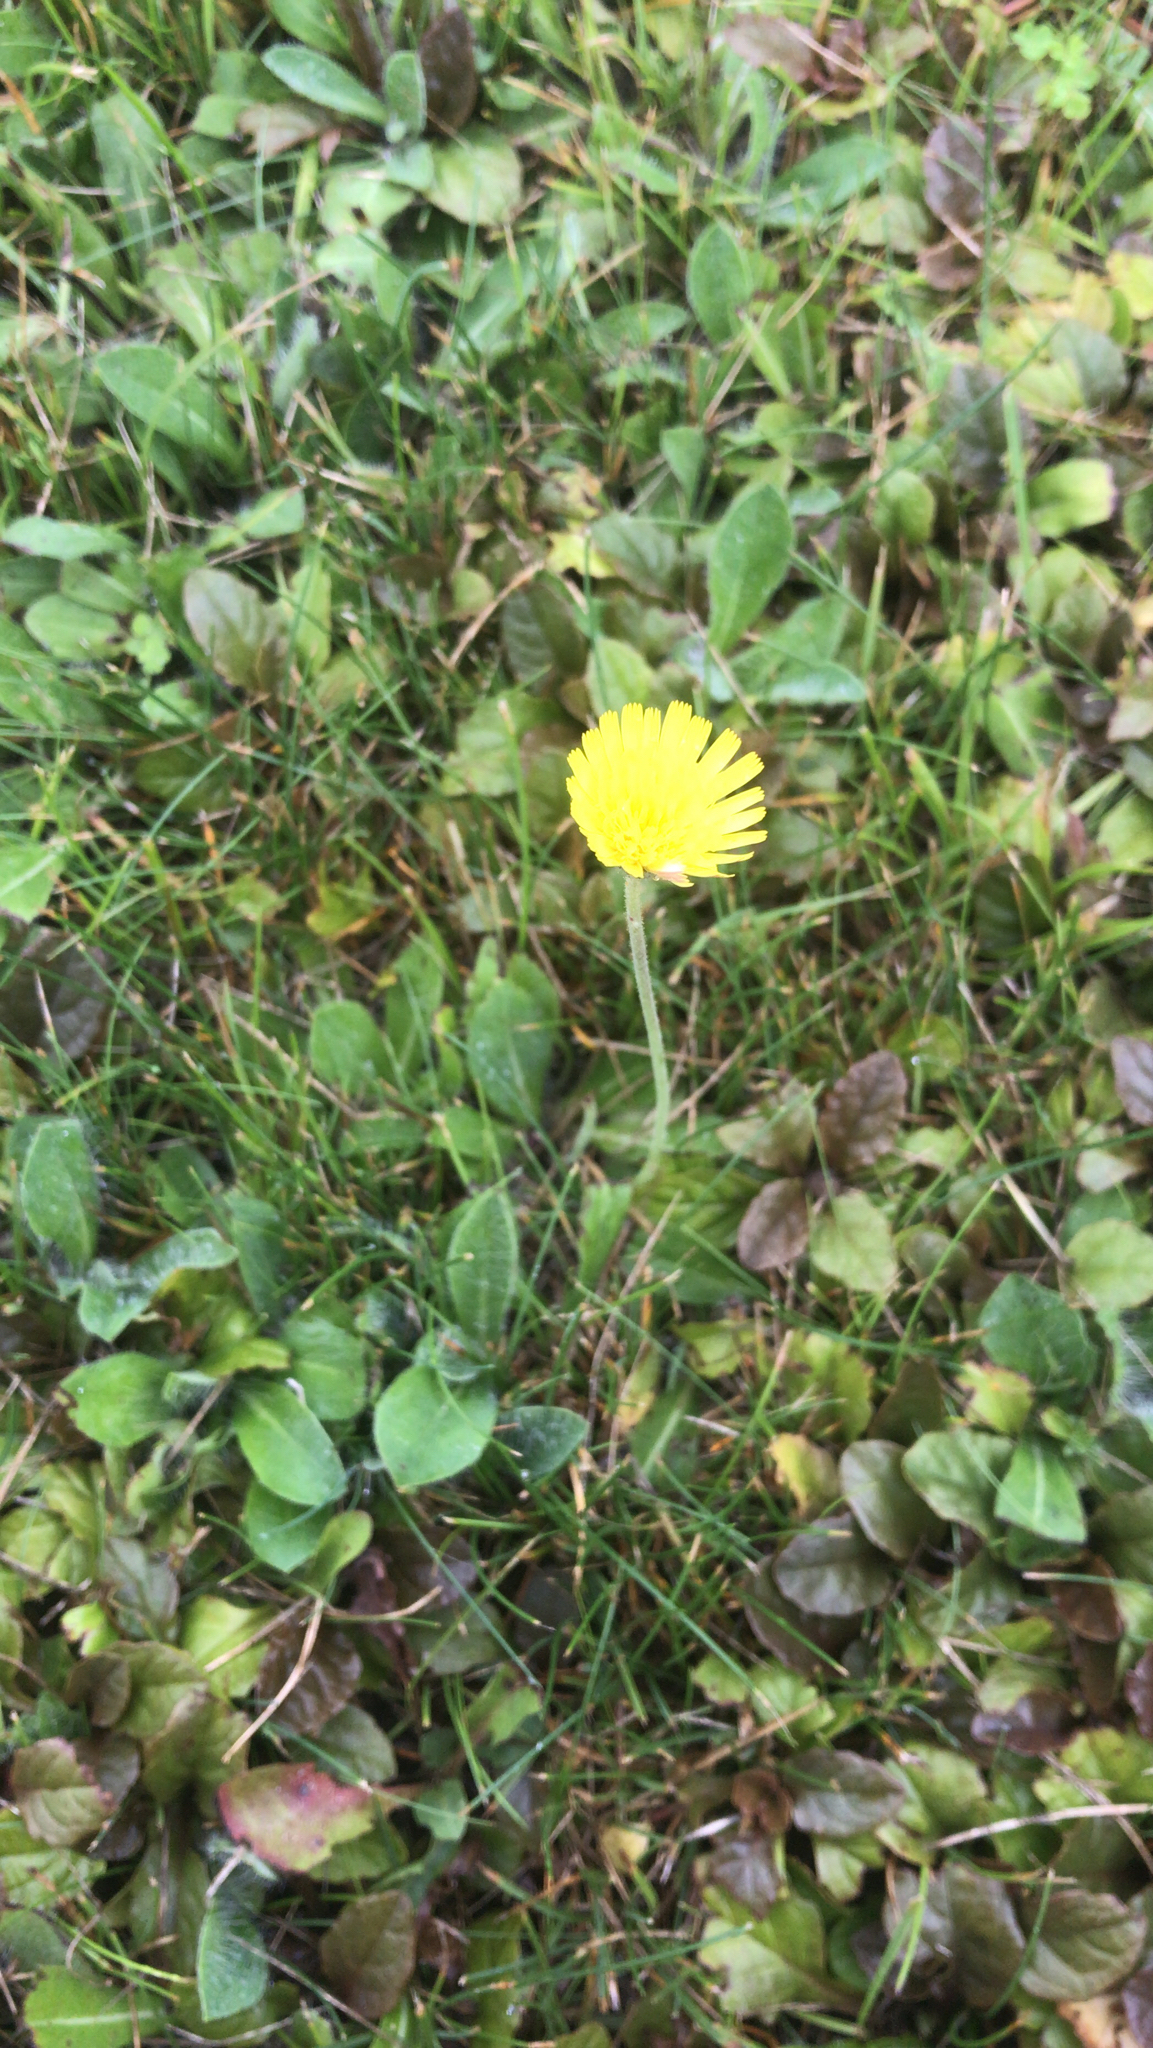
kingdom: Plantae
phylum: Tracheophyta
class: Magnoliopsida
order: Asterales
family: Asteraceae
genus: Pilosella
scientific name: Pilosella officinarum
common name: Mouse-ear hawkweed
